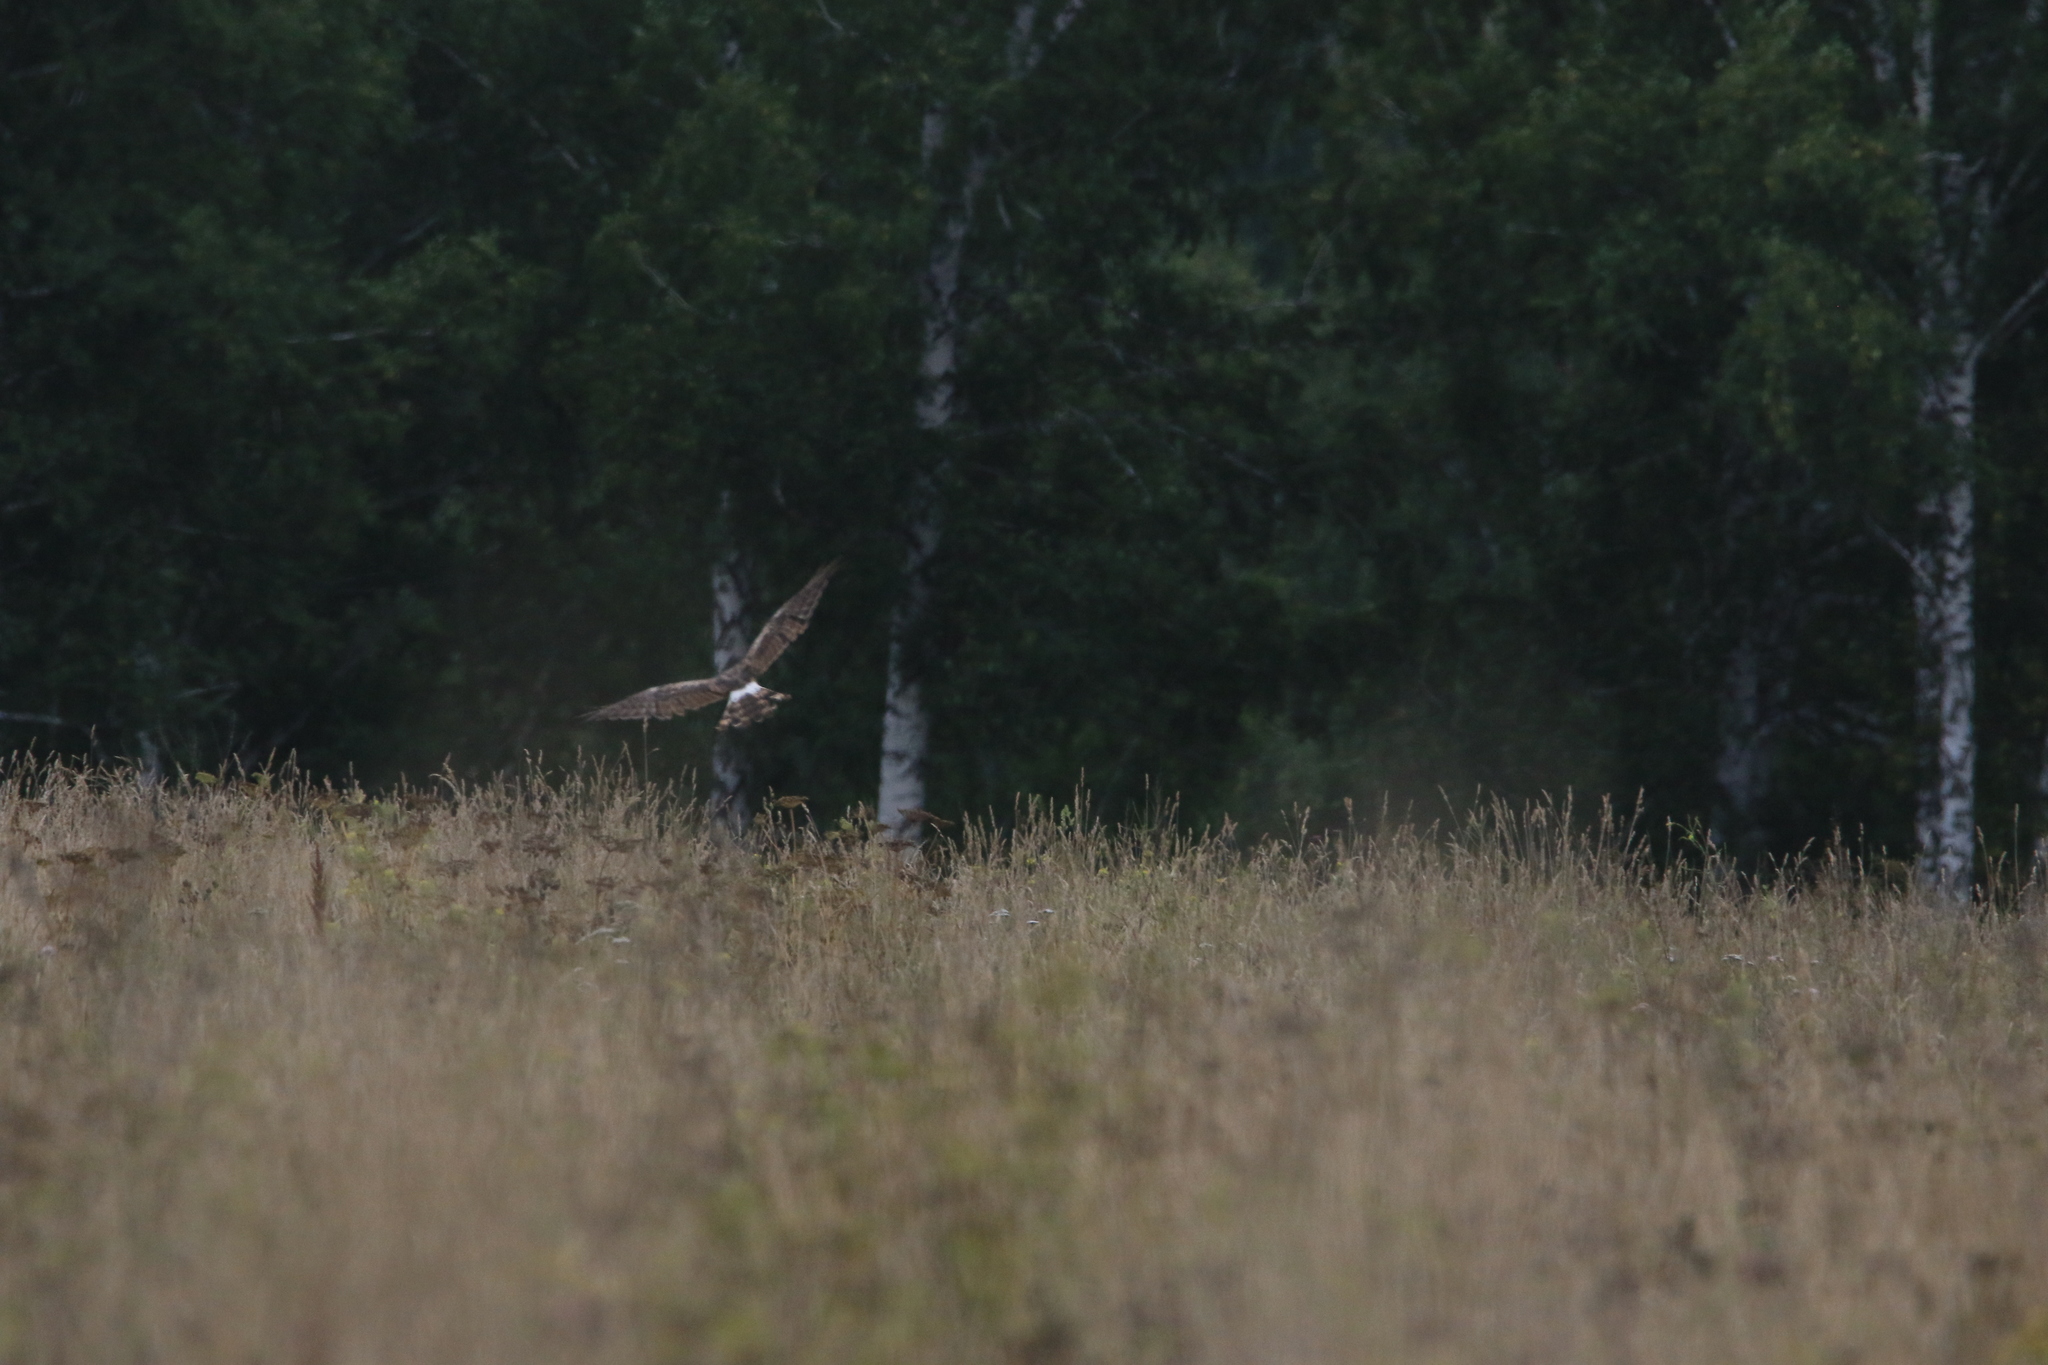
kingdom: Animalia
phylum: Chordata
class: Aves
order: Accipitriformes
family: Accipitridae
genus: Circus
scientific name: Circus cyaneus
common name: Hen harrier
